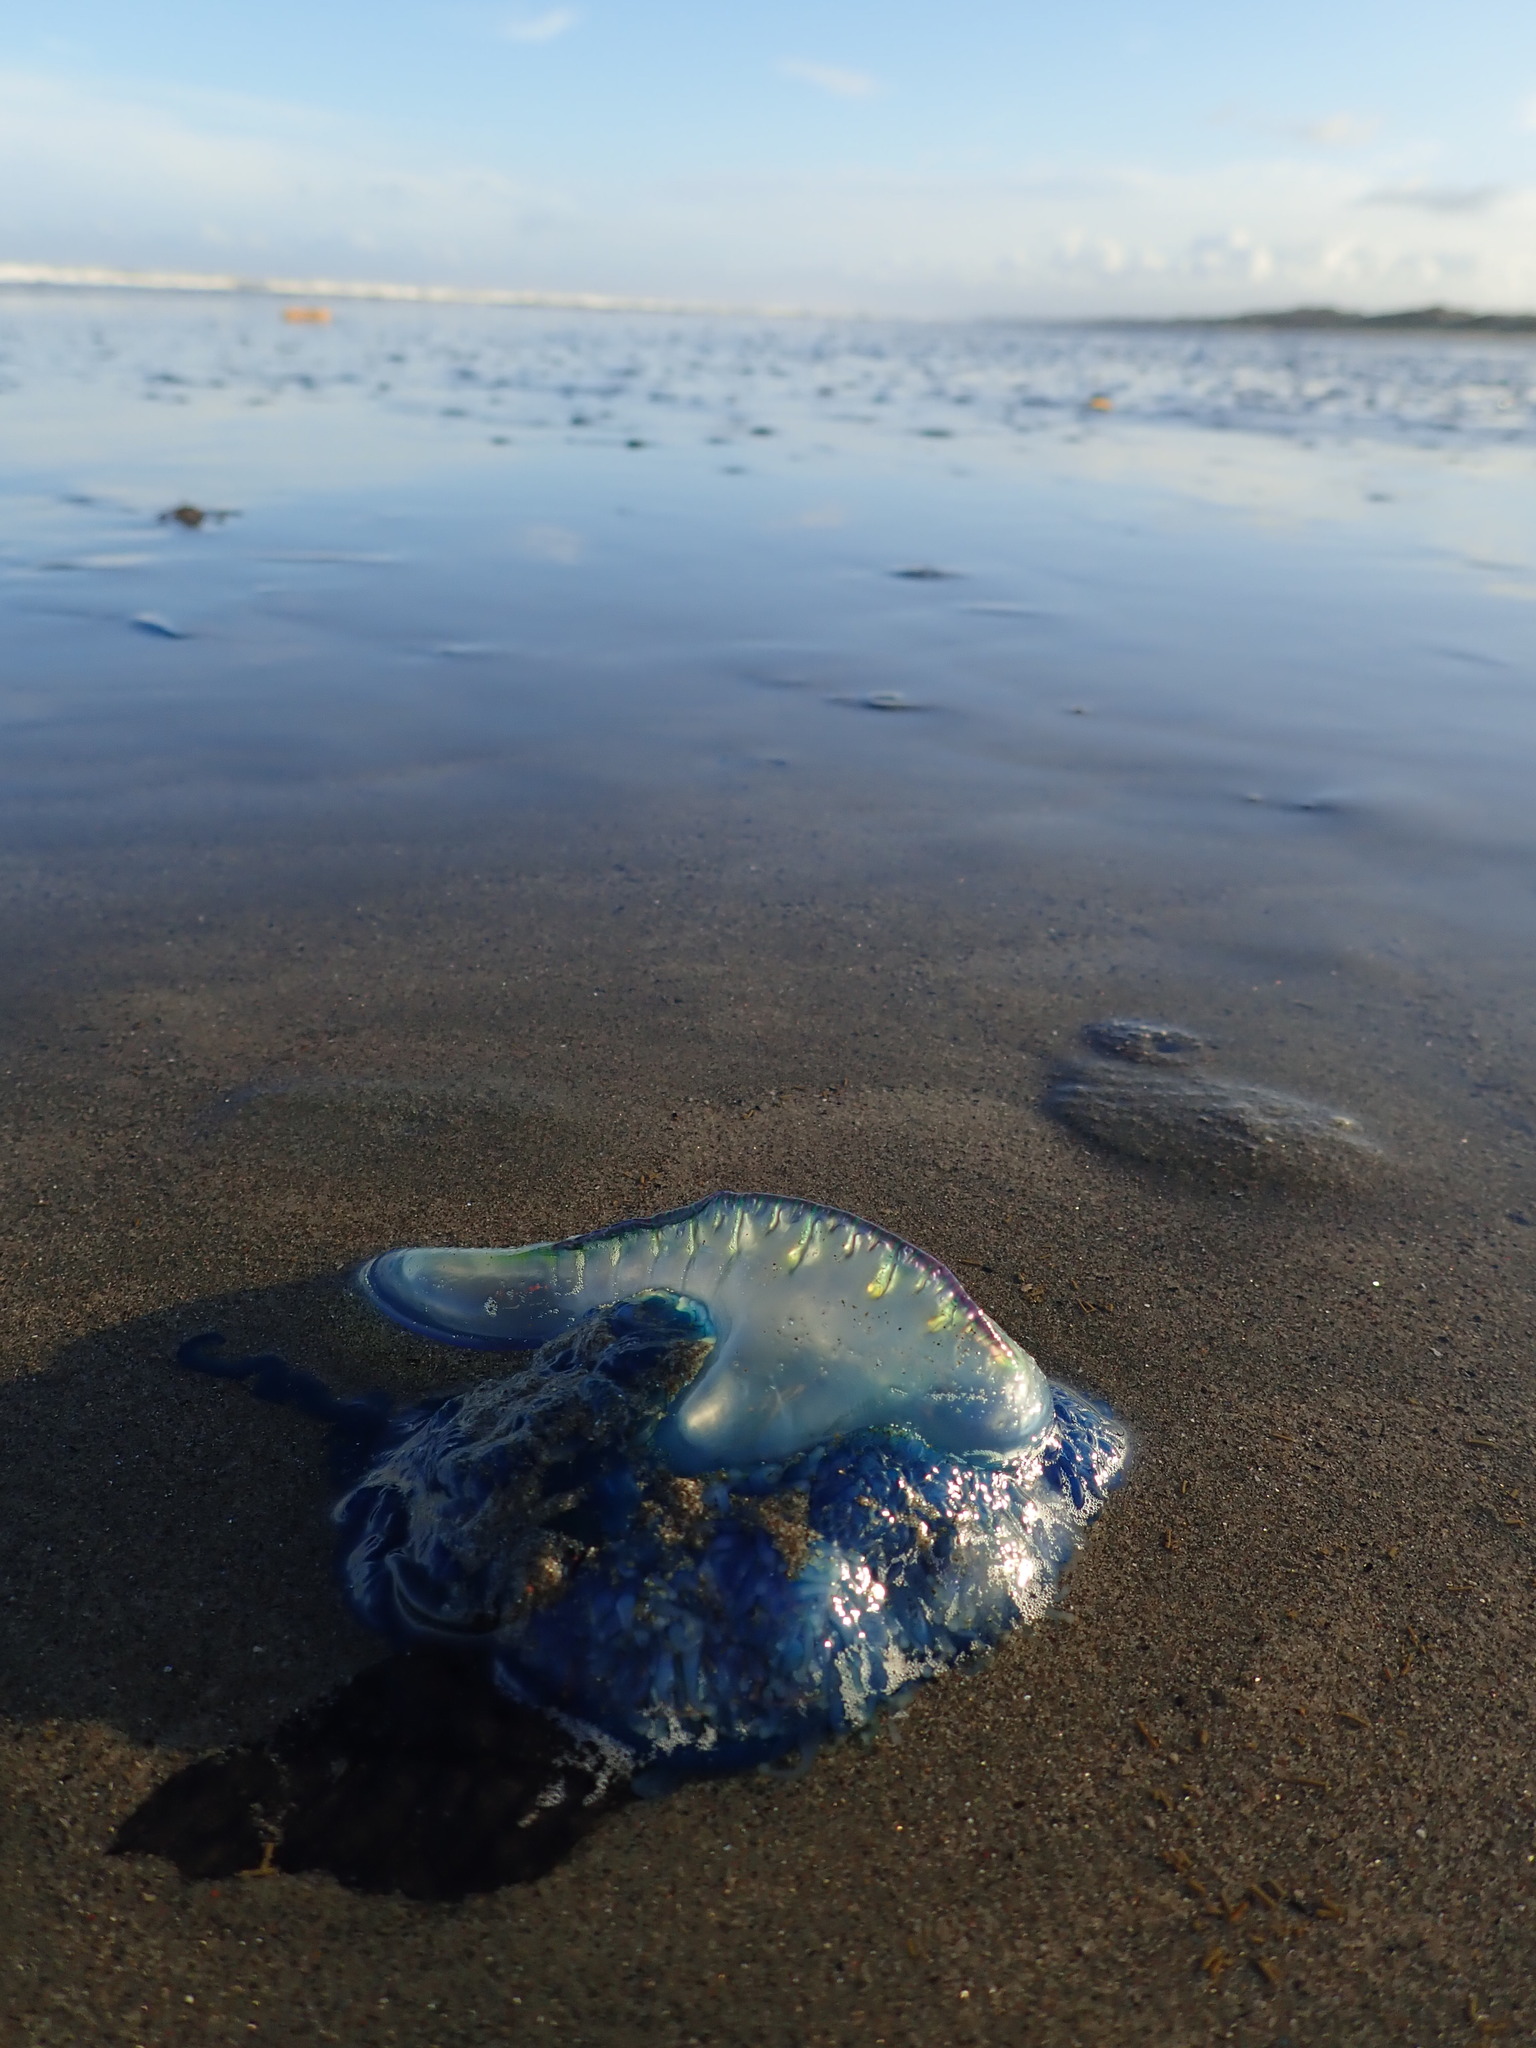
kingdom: Animalia
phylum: Cnidaria
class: Hydrozoa
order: Siphonophorae
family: Physaliidae
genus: Physalia
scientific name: Physalia physalis
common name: Portuguese man-of-war
